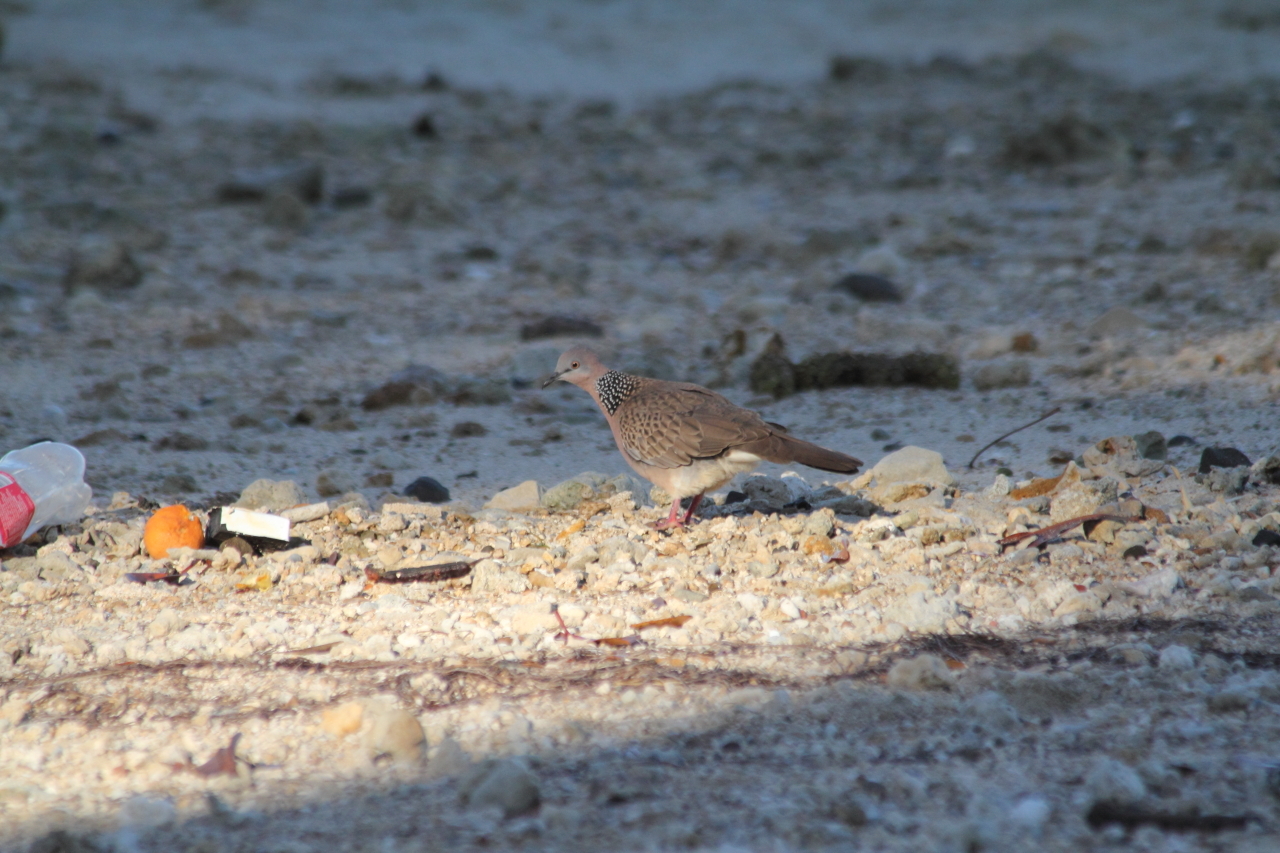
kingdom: Animalia
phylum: Chordata
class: Aves
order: Columbiformes
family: Columbidae
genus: Spilopelia
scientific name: Spilopelia chinensis
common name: Spotted dove
